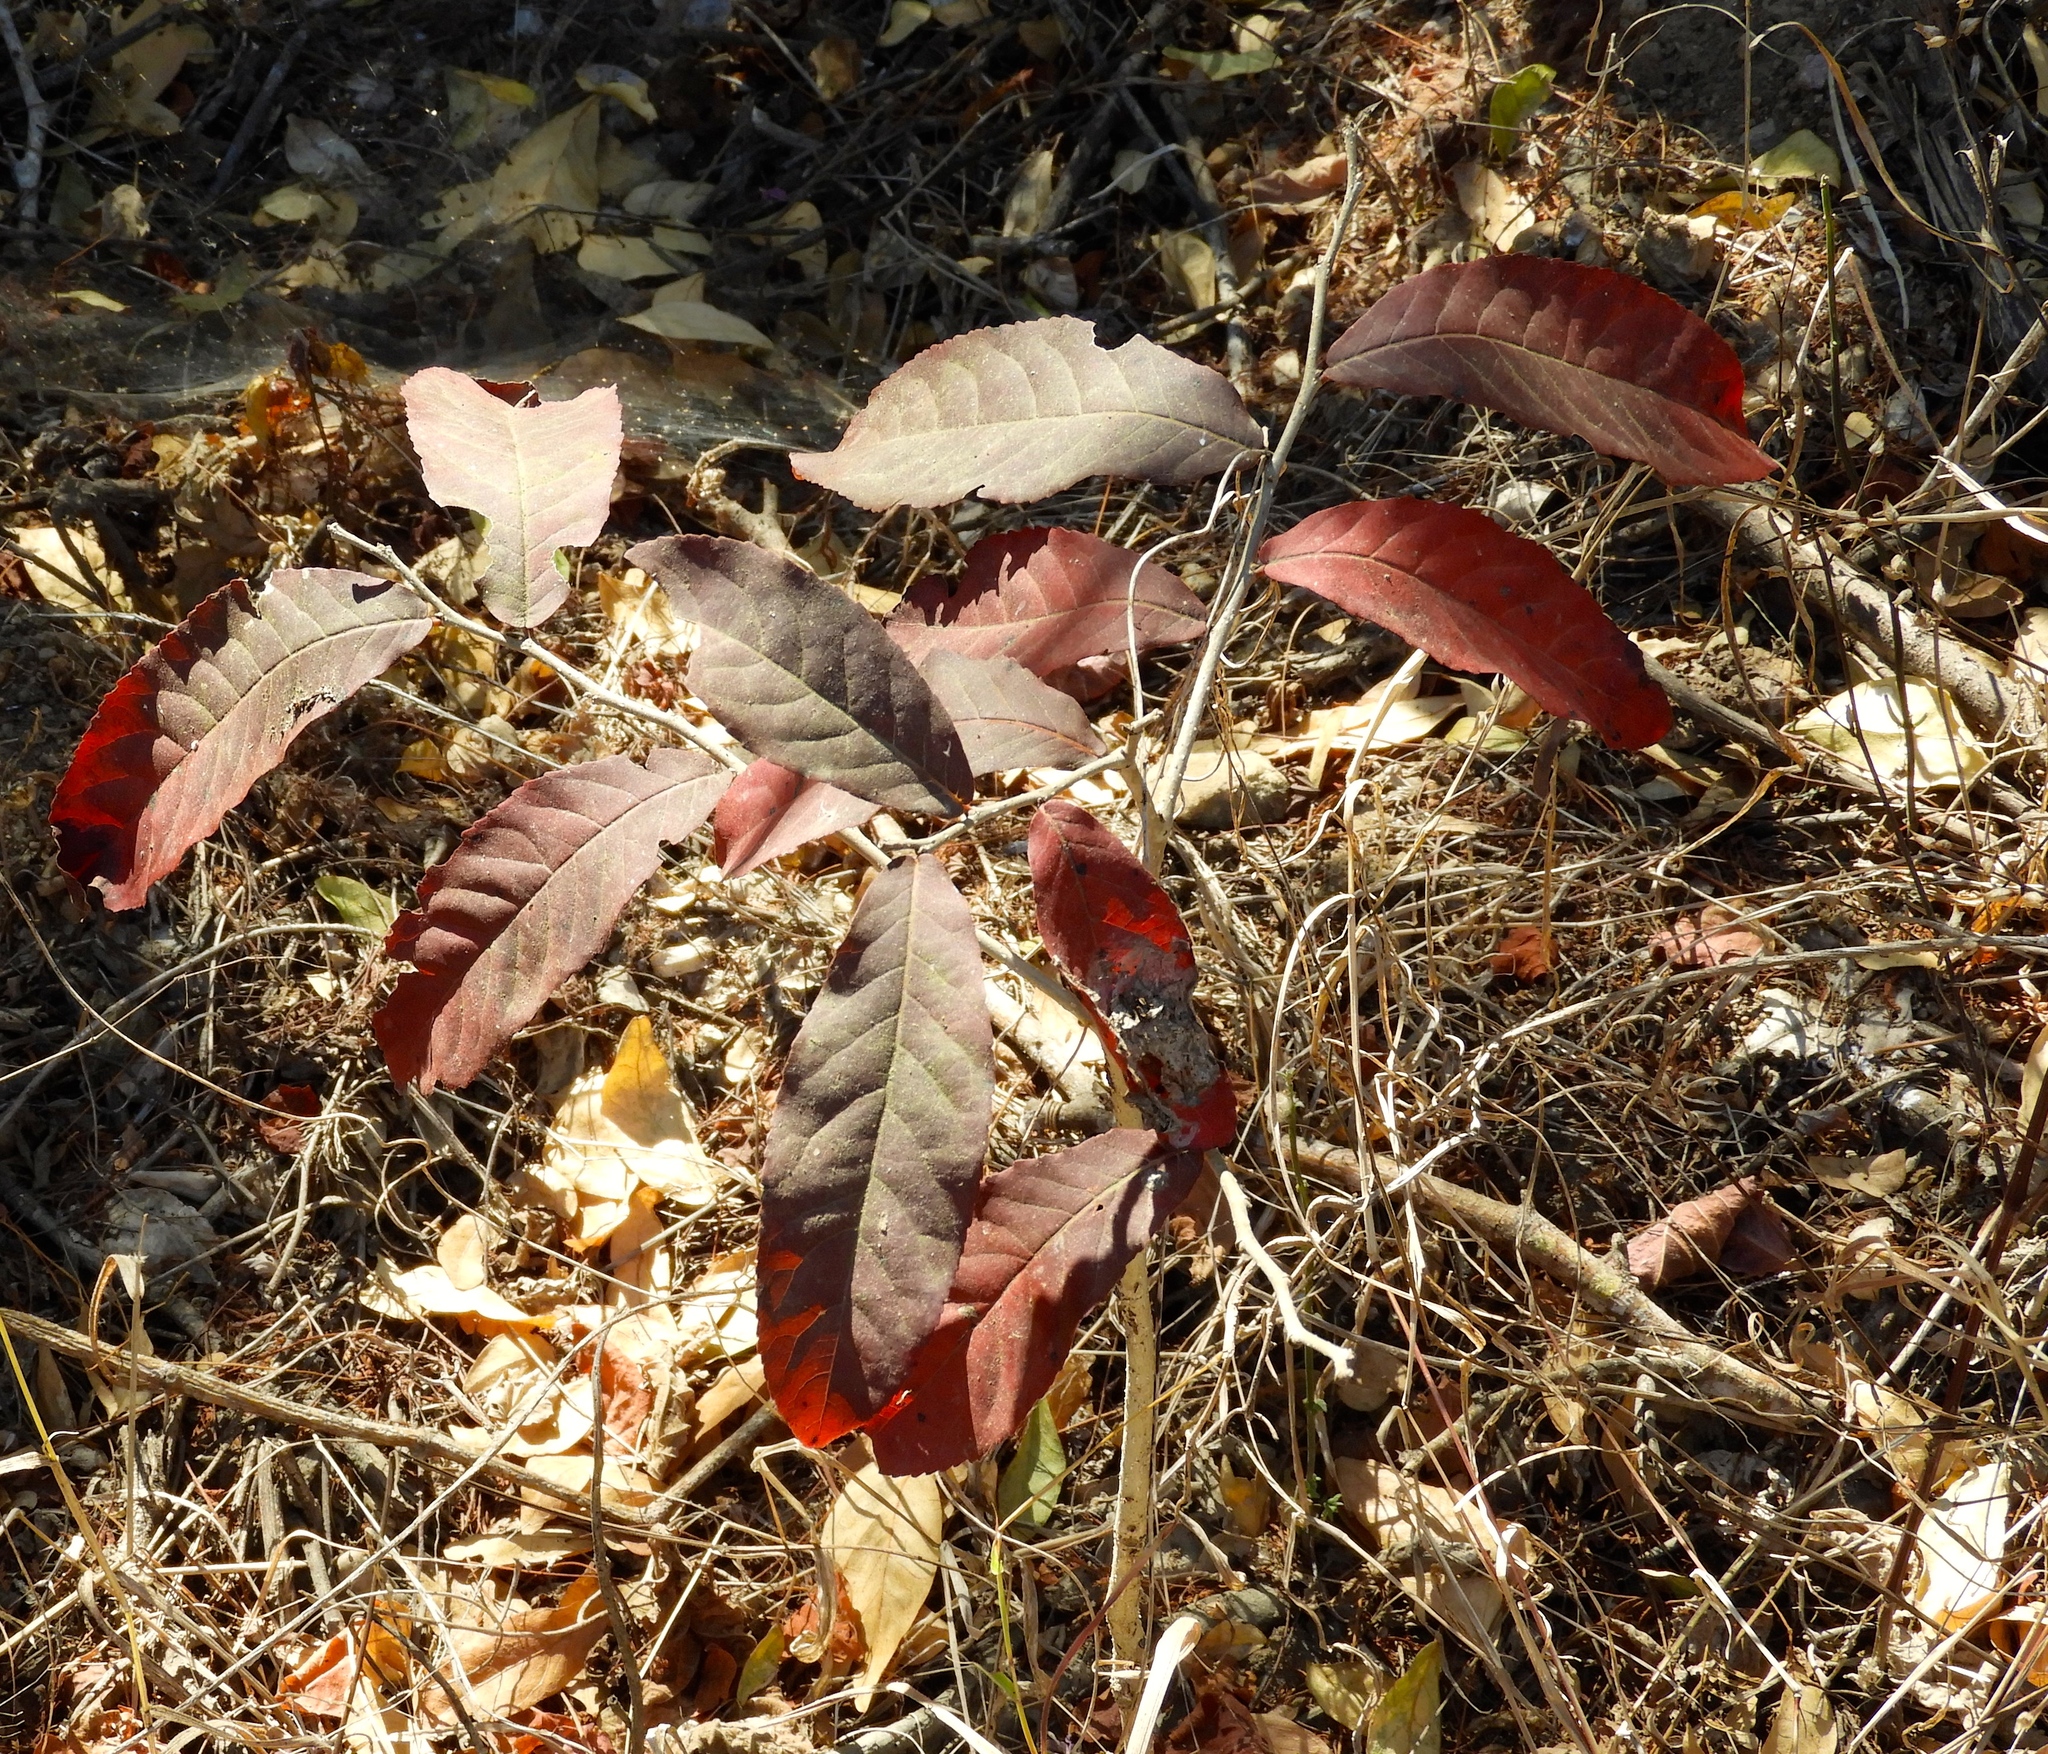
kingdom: Plantae
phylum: Tracheophyta
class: Magnoliopsida
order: Malpighiales
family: Salicaceae
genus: Casearia
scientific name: Casearia corymbosa
